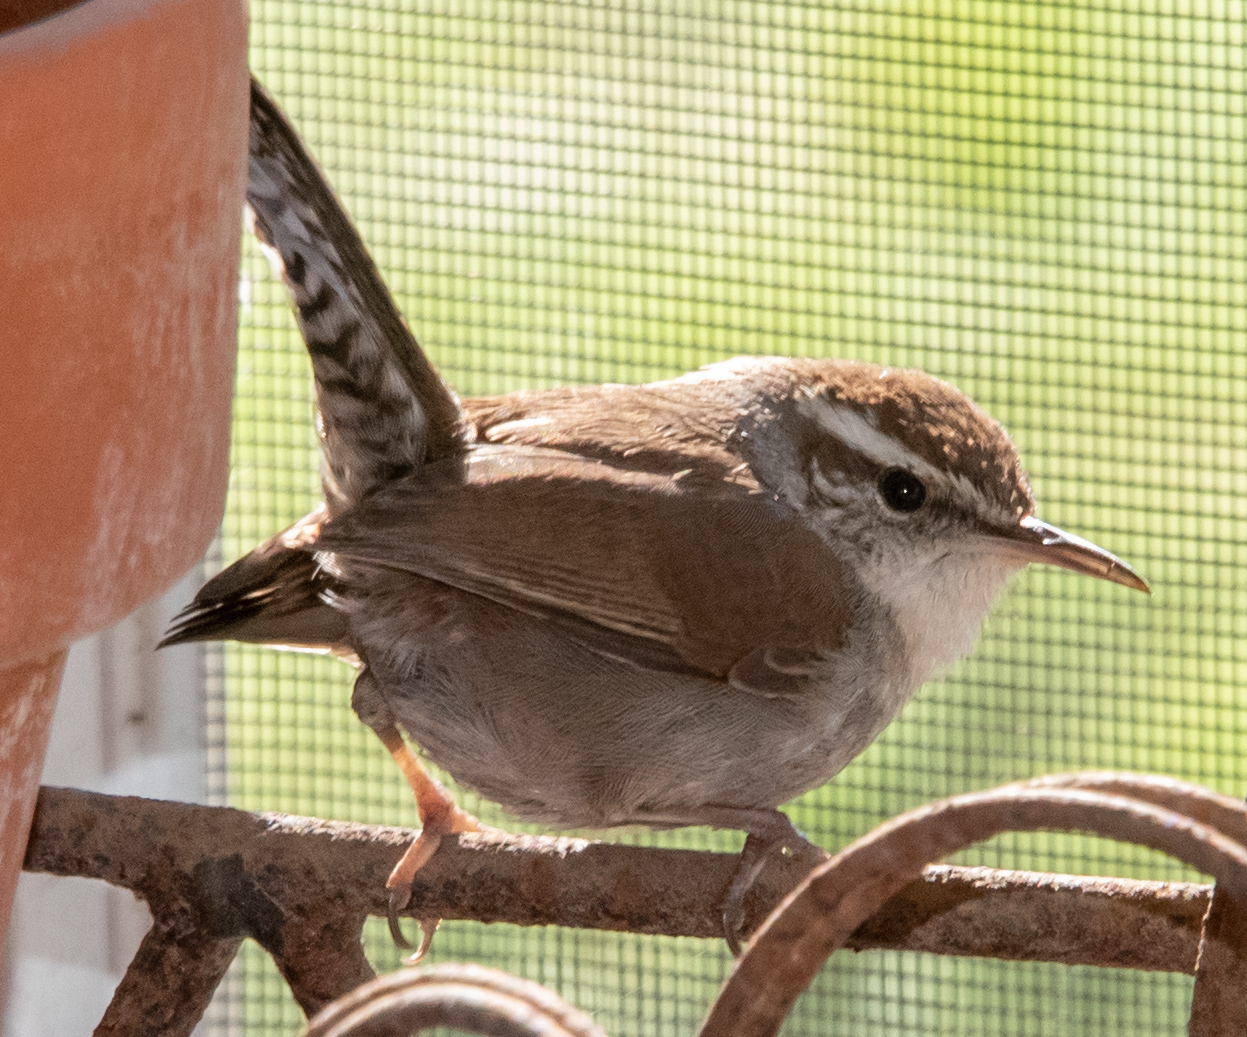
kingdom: Animalia
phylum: Chordata
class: Aves
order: Passeriformes
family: Troglodytidae
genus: Thryomanes
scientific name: Thryomanes bewickii
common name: Bewick's wren
